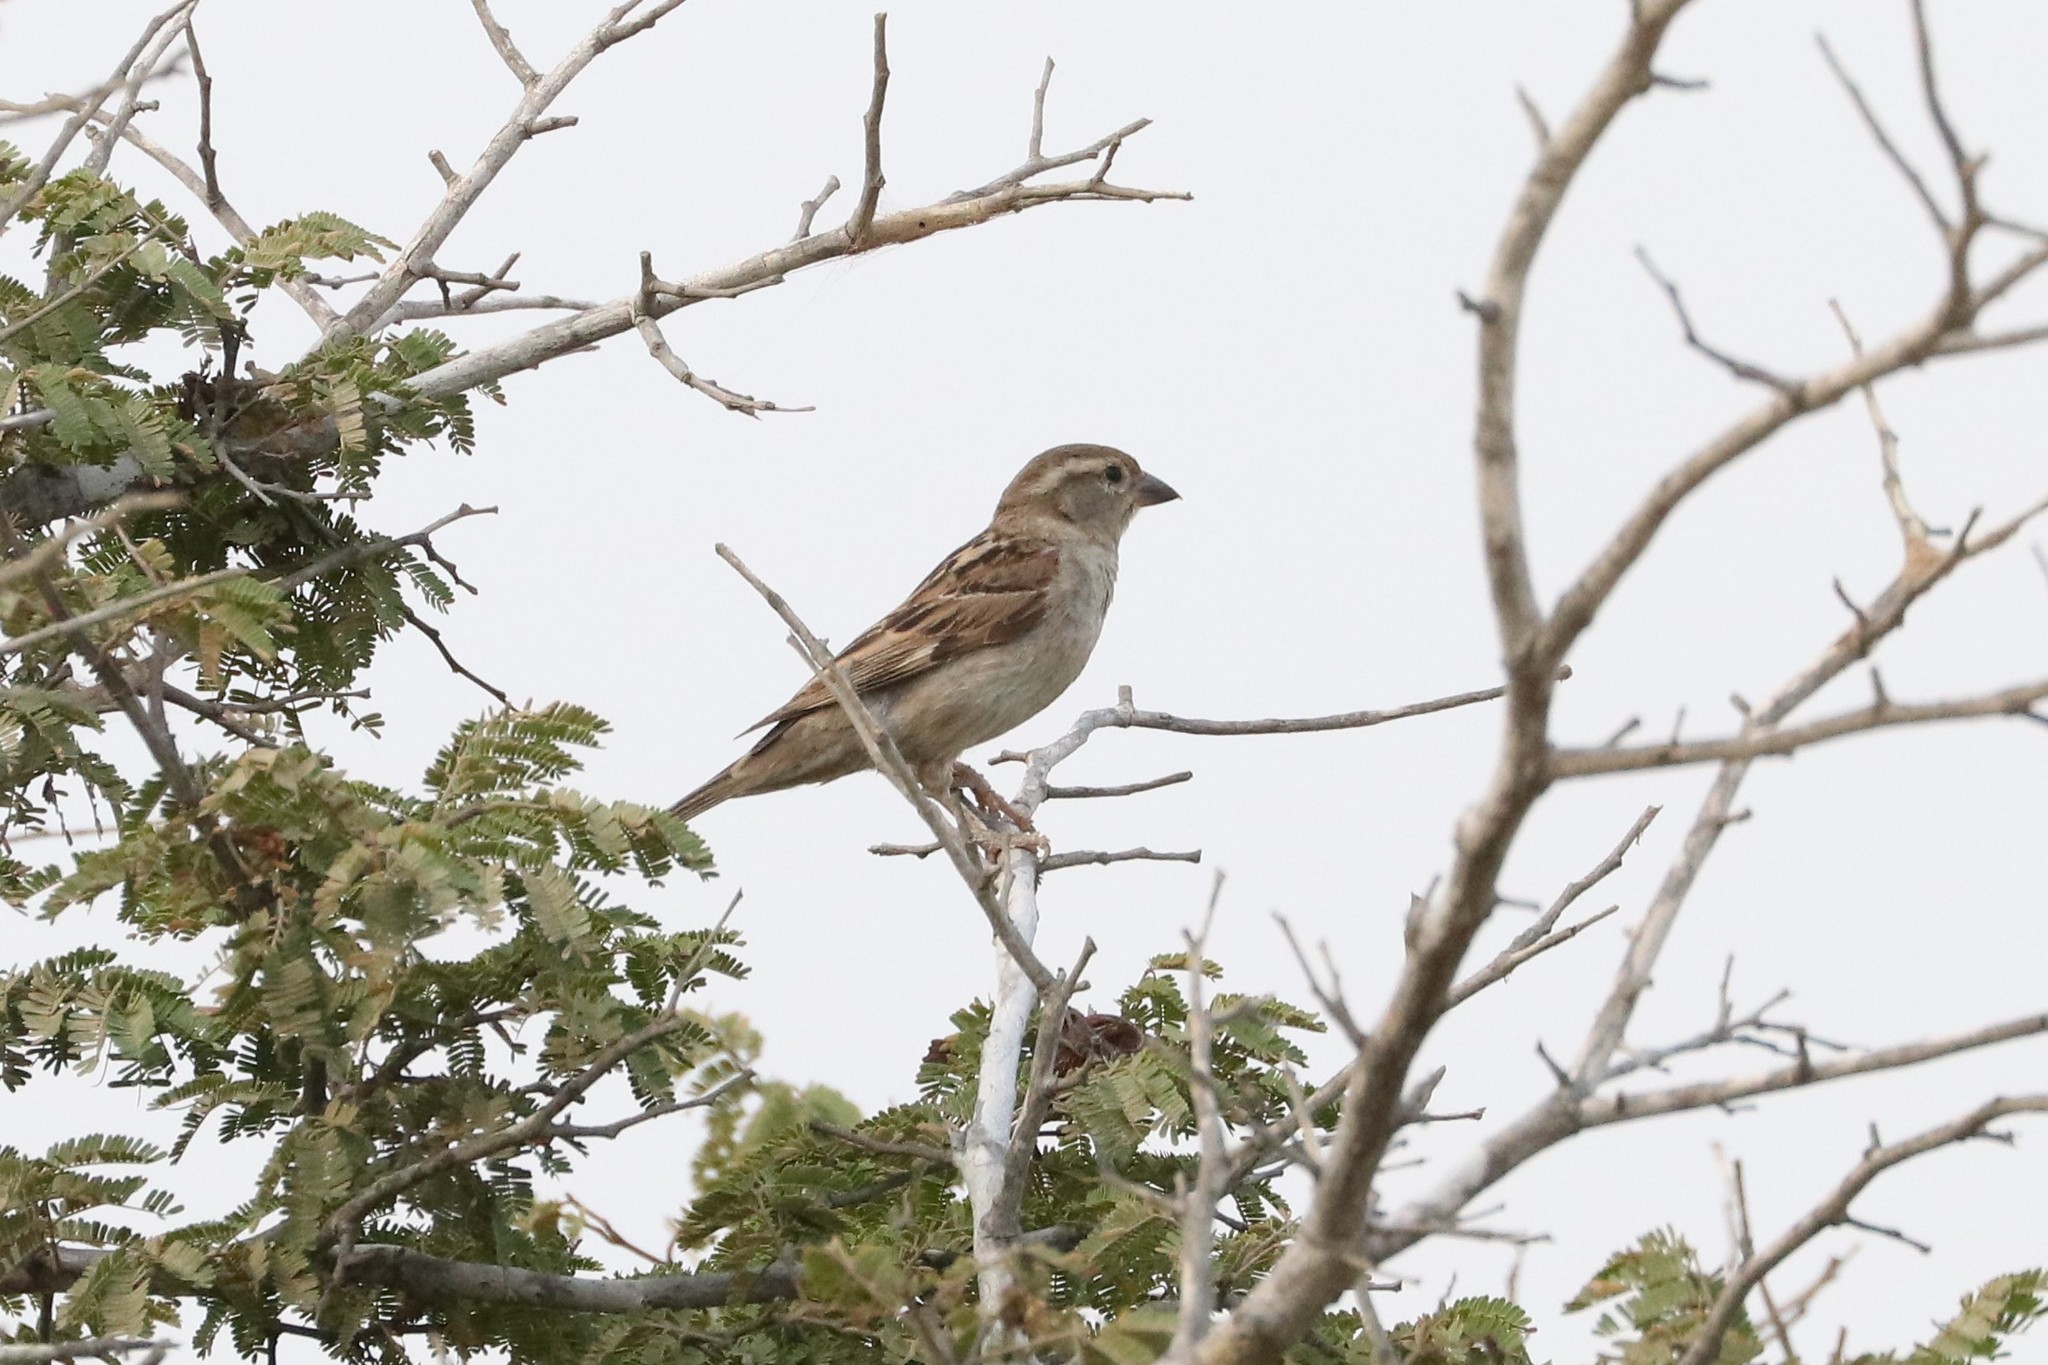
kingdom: Animalia
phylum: Chordata
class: Aves
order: Passeriformes
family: Passeridae
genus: Passer
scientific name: Passer domesticus
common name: House sparrow
